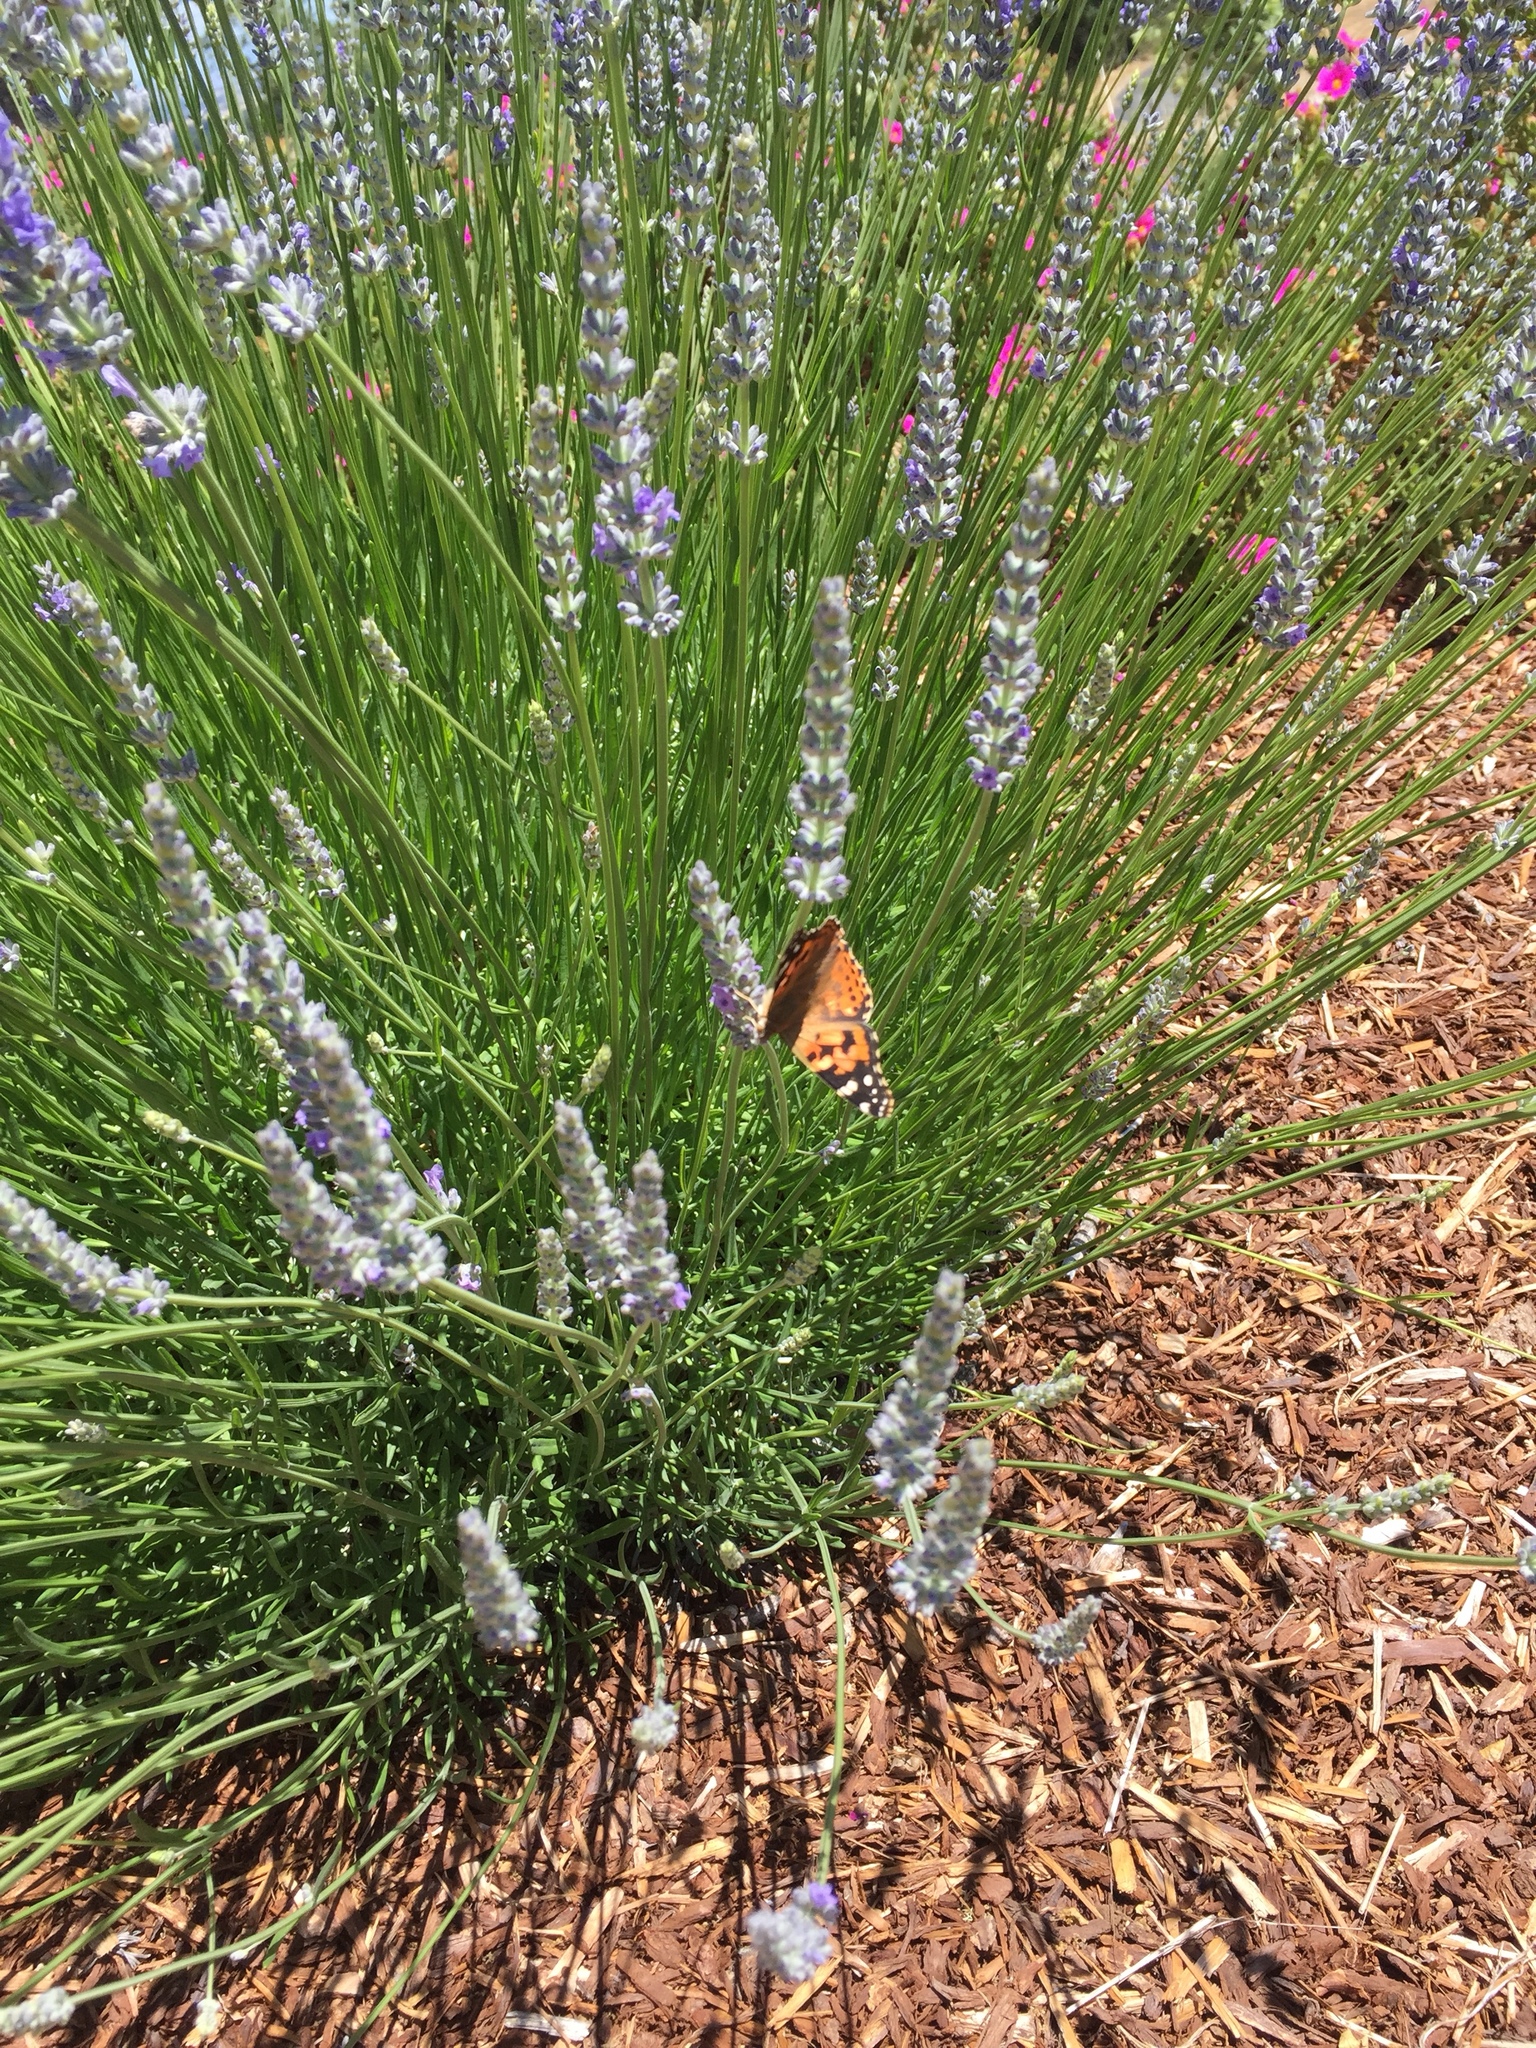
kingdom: Animalia
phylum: Arthropoda
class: Insecta
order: Lepidoptera
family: Nymphalidae
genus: Vanessa
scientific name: Vanessa cardui
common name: Painted lady
